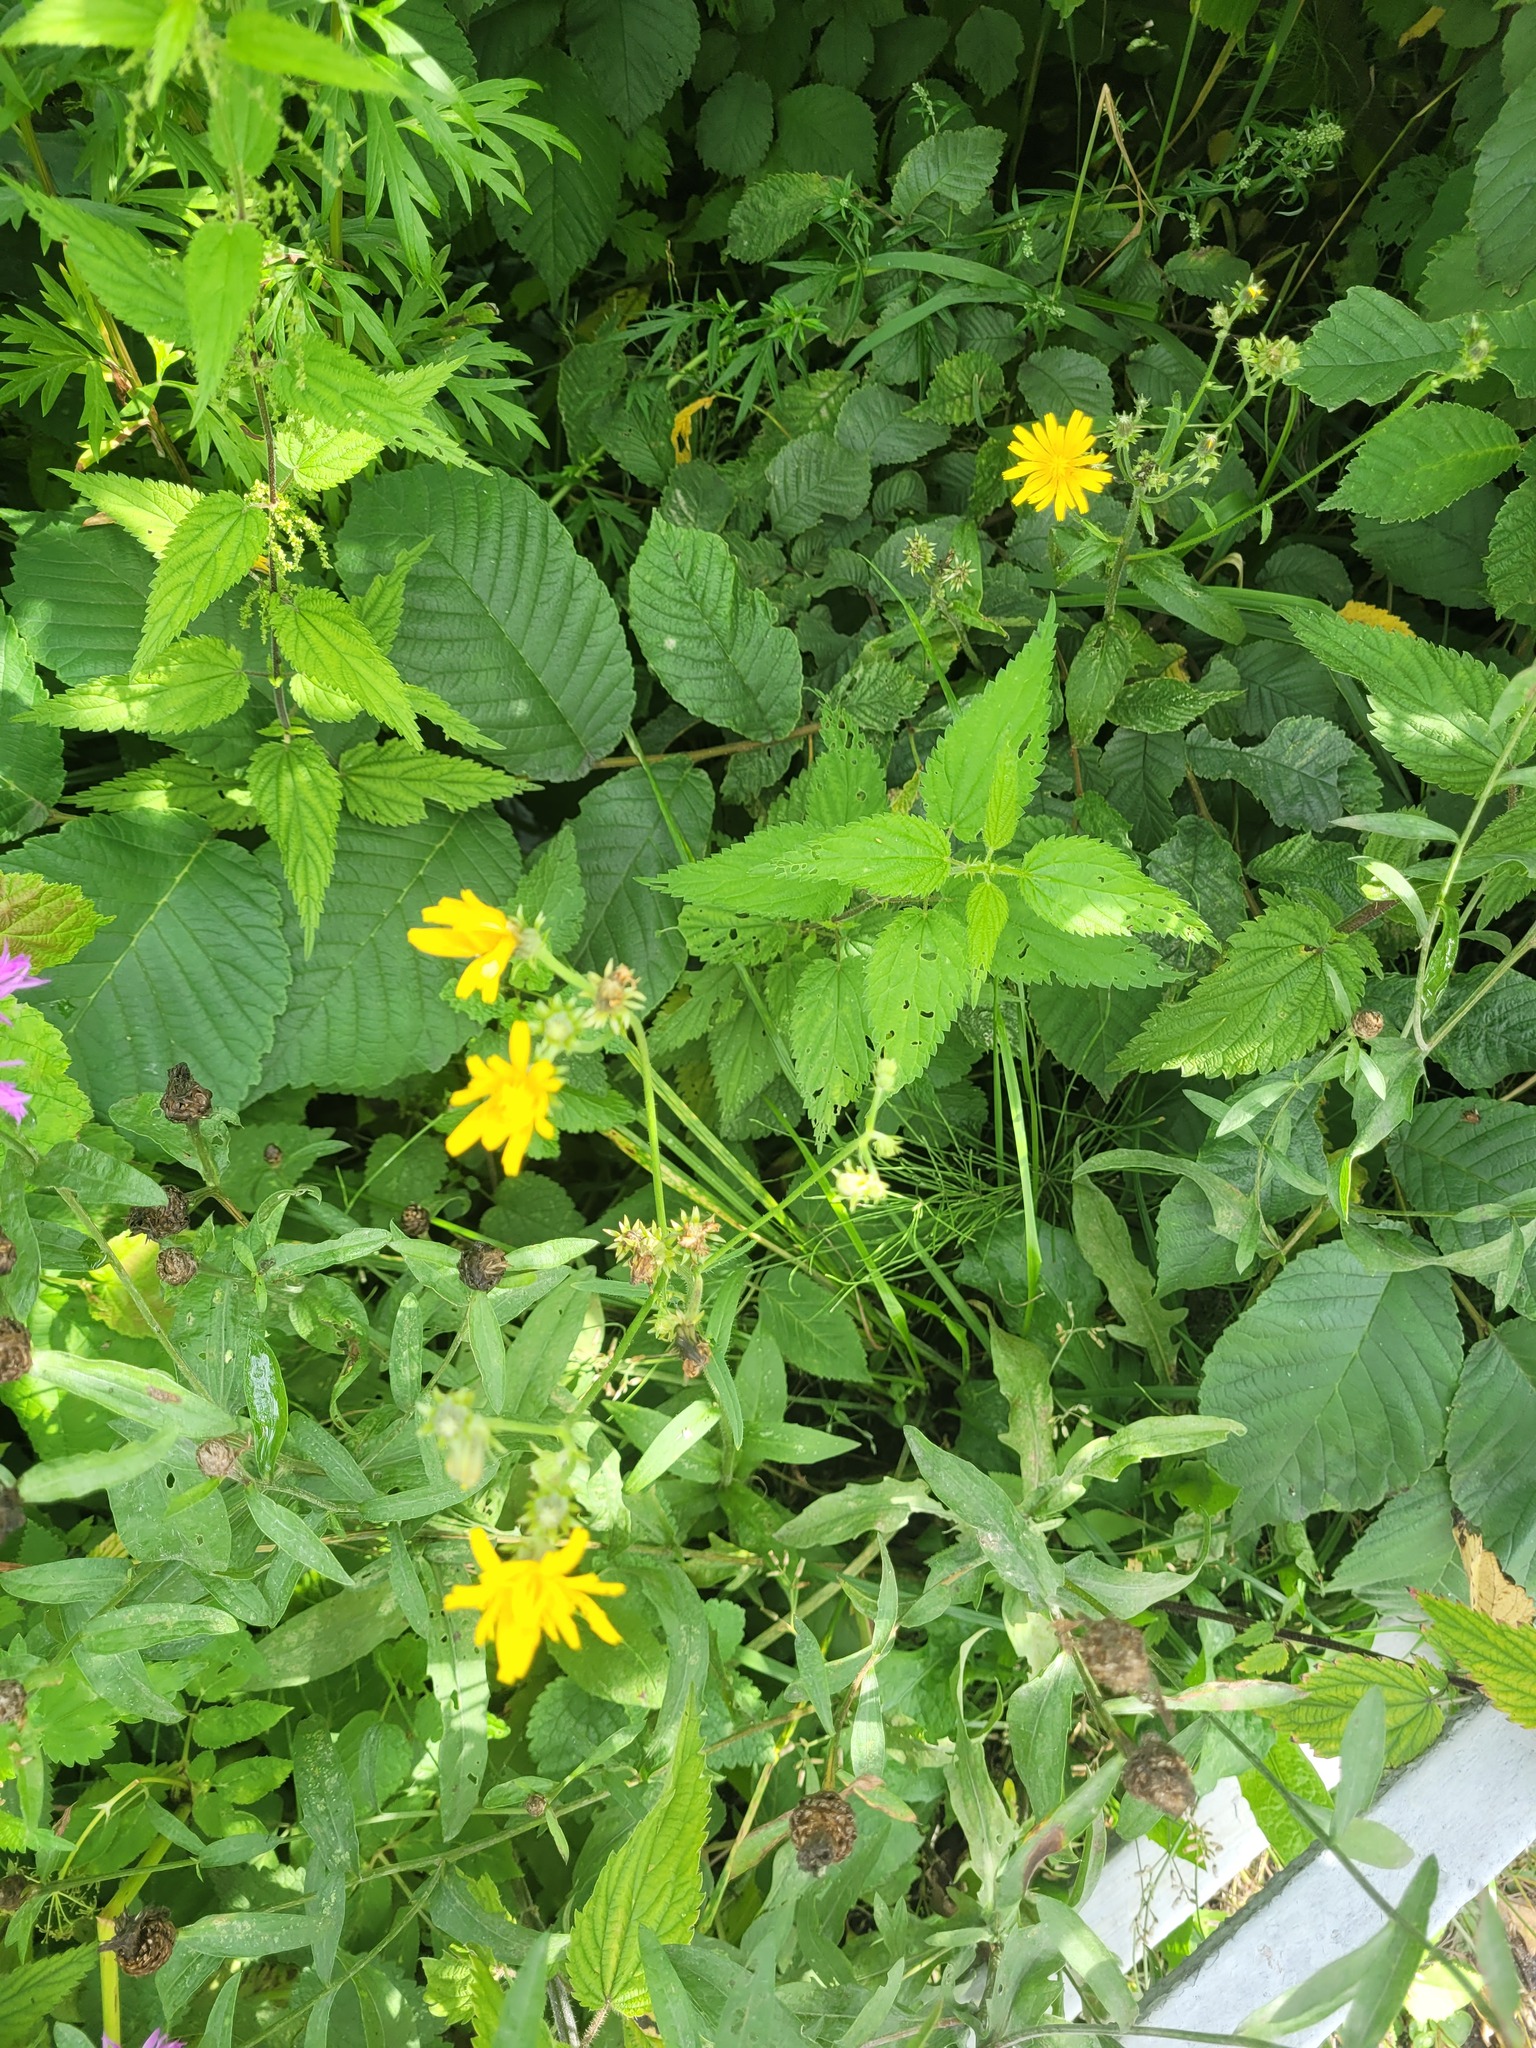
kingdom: Plantae
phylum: Tracheophyta
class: Magnoliopsida
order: Asterales
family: Asteraceae
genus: Picris
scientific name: Picris hieracioides
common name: Hawkweed oxtongue
